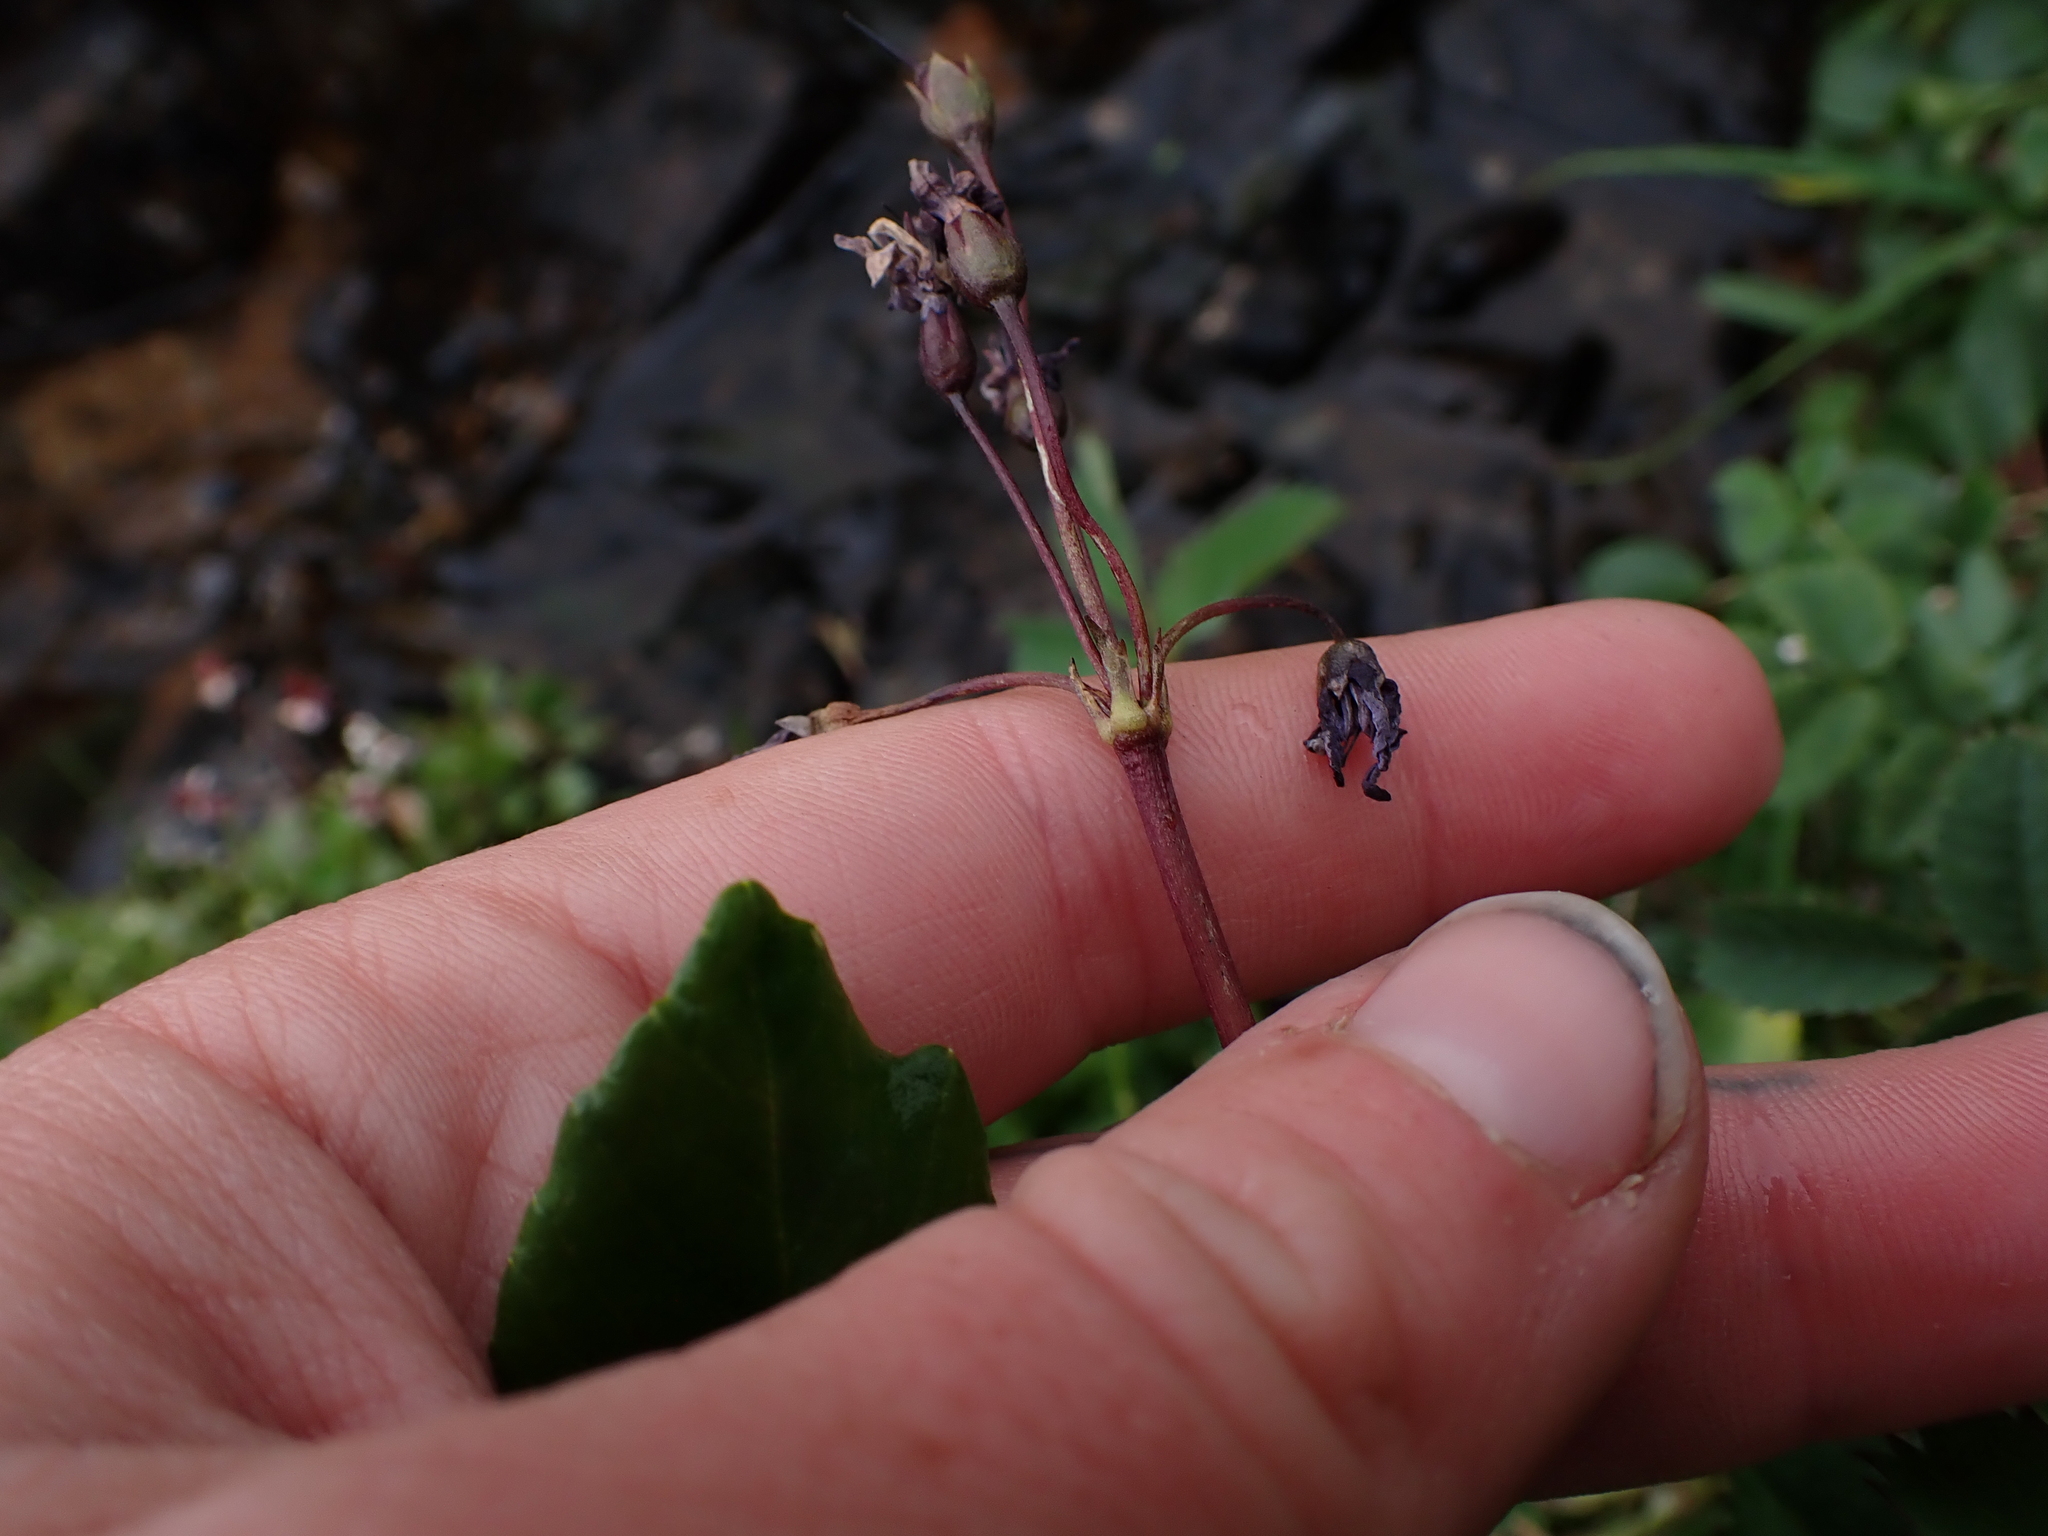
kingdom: Plantae
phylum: Tracheophyta
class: Magnoliopsida
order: Ericales
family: Primulaceae
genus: Dodecatheon
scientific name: Dodecatheon frigidum
